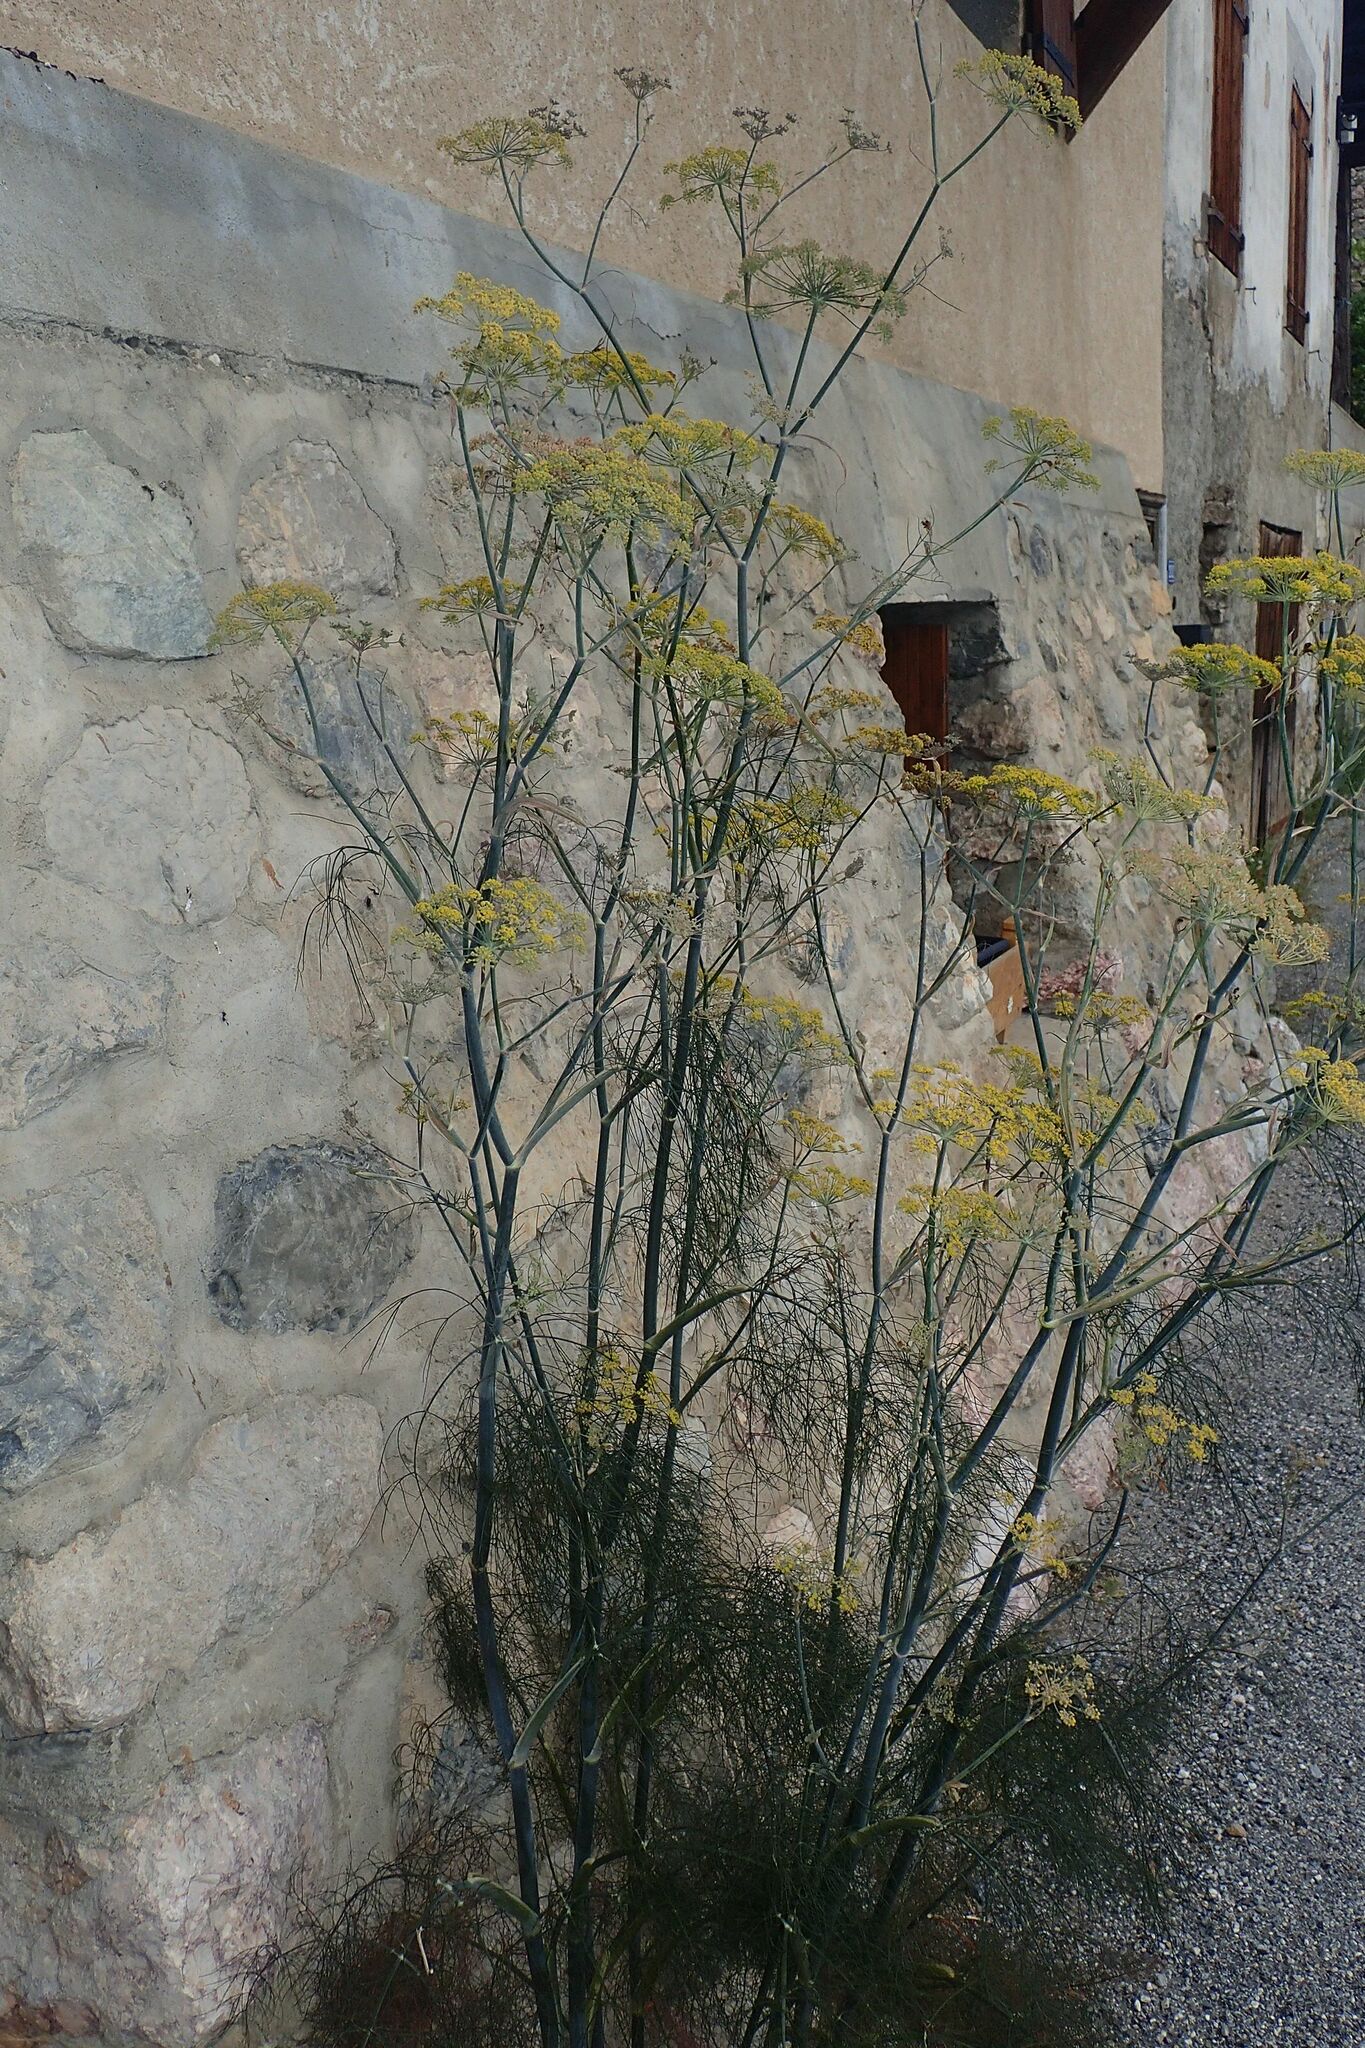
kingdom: Plantae
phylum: Tracheophyta
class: Magnoliopsida
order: Apiales
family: Apiaceae
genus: Foeniculum
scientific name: Foeniculum vulgare
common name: Fennel
